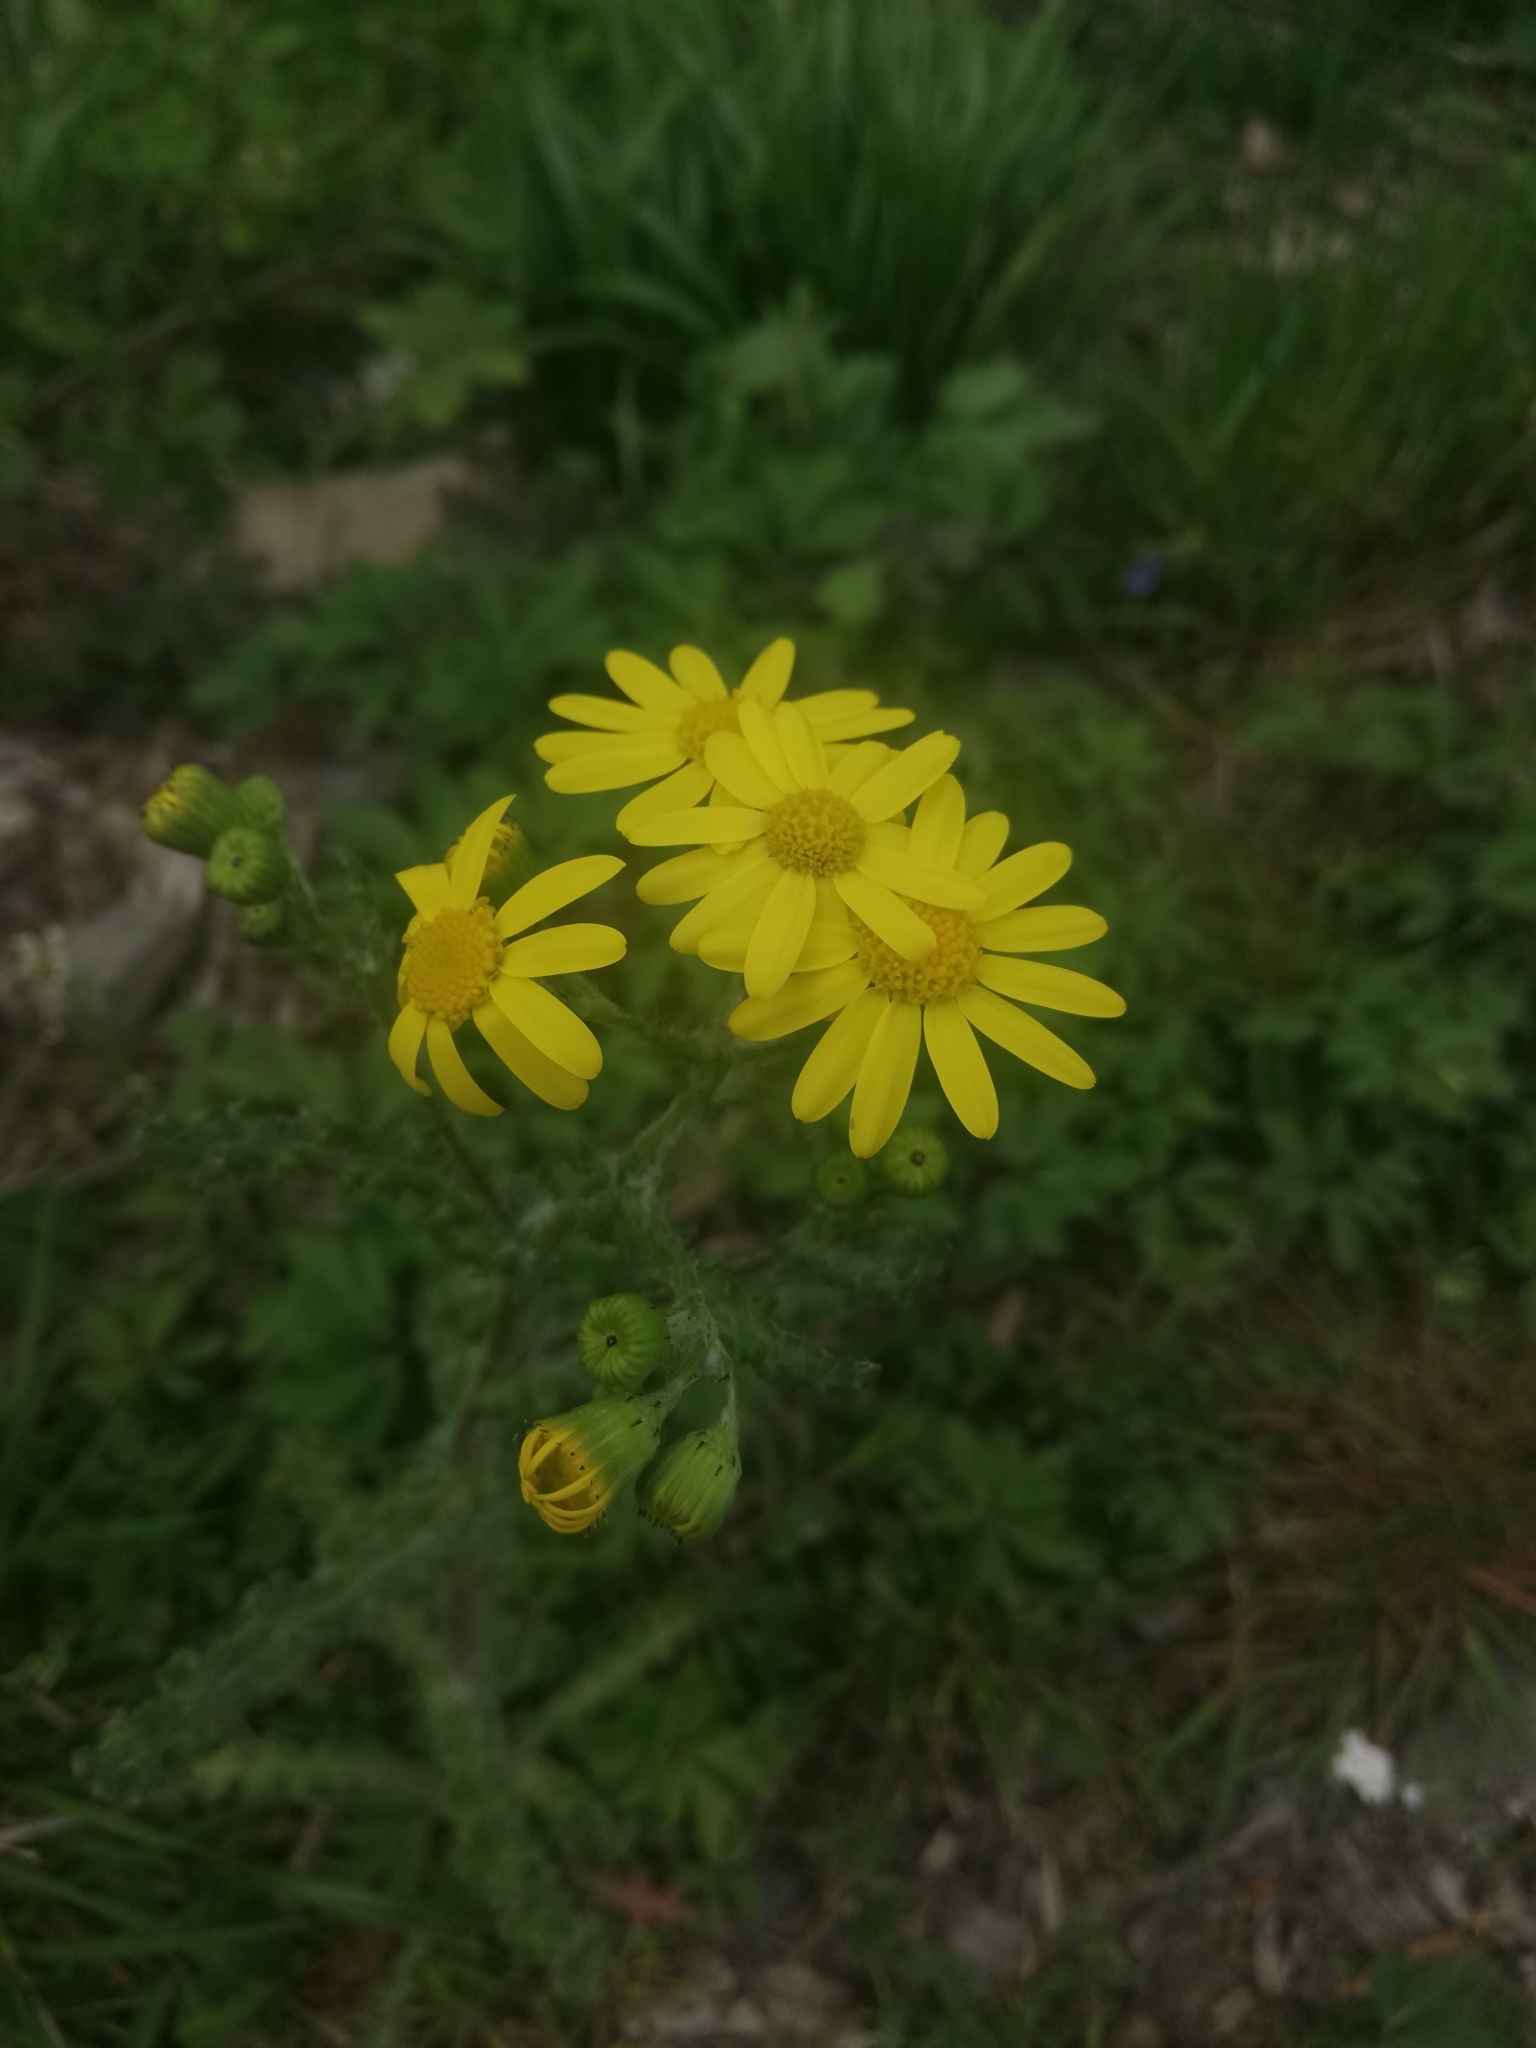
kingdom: Plantae
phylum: Tracheophyta
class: Magnoliopsida
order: Asterales
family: Asteraceae
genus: Senecio
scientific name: Senecio vernalis
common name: Eastern groundsel
